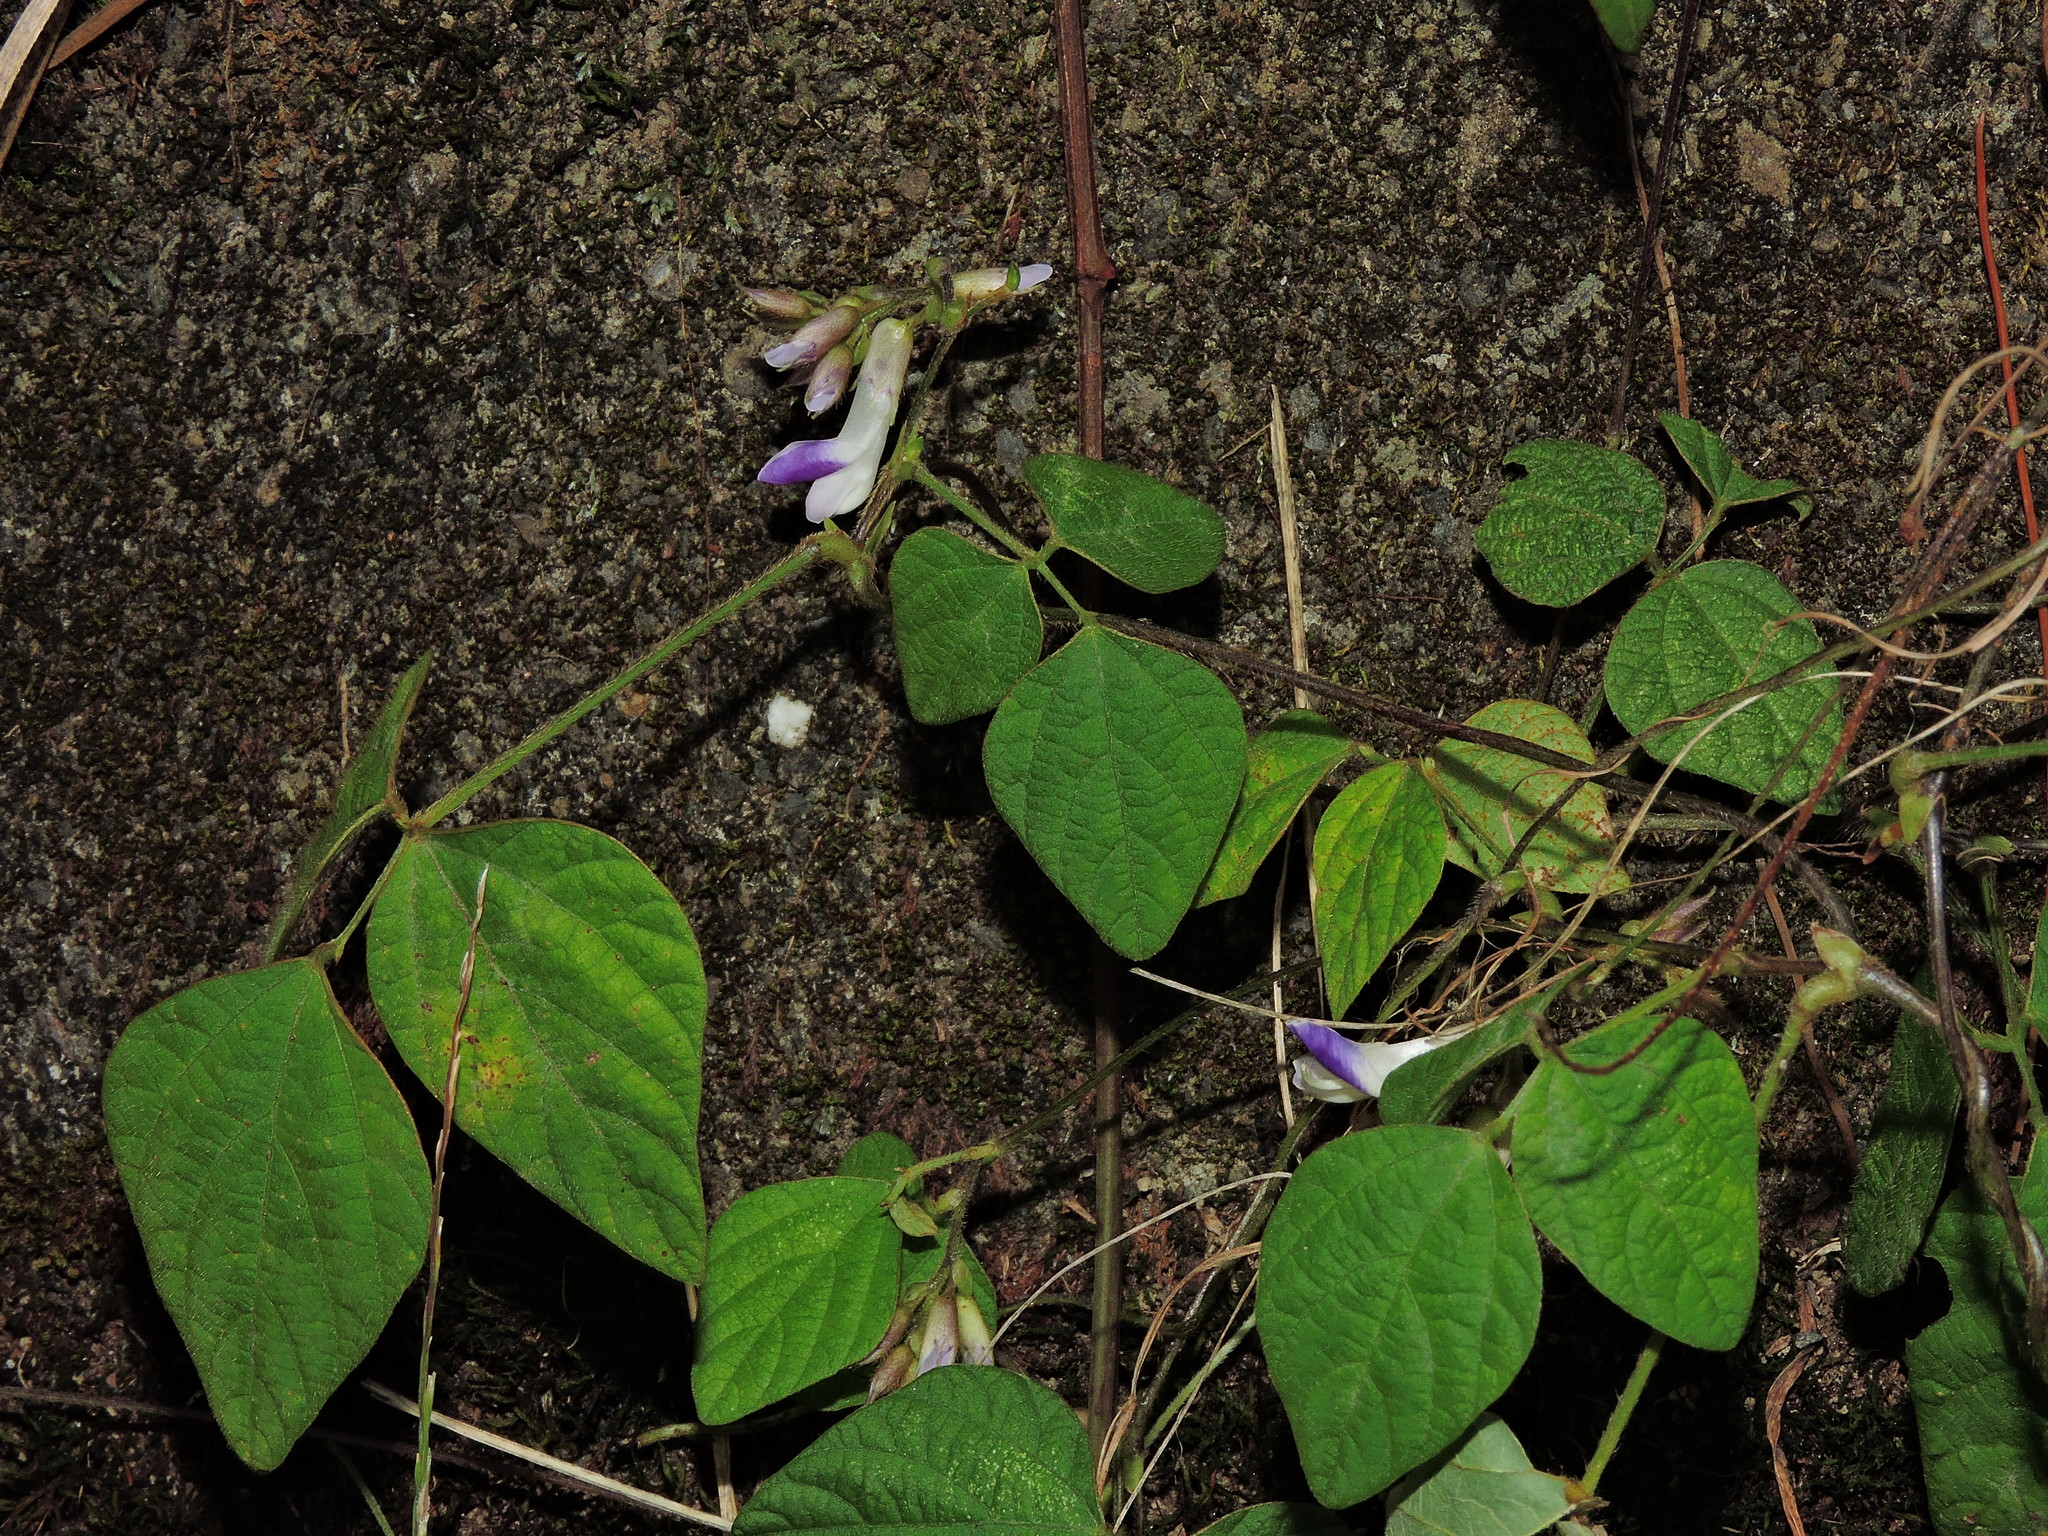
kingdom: Plantae
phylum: Tracheophyta
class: Magnoliopsida
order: Fabales
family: Fabaceae
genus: Amphicarpaea
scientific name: Amphicarpaea edgeworthii
